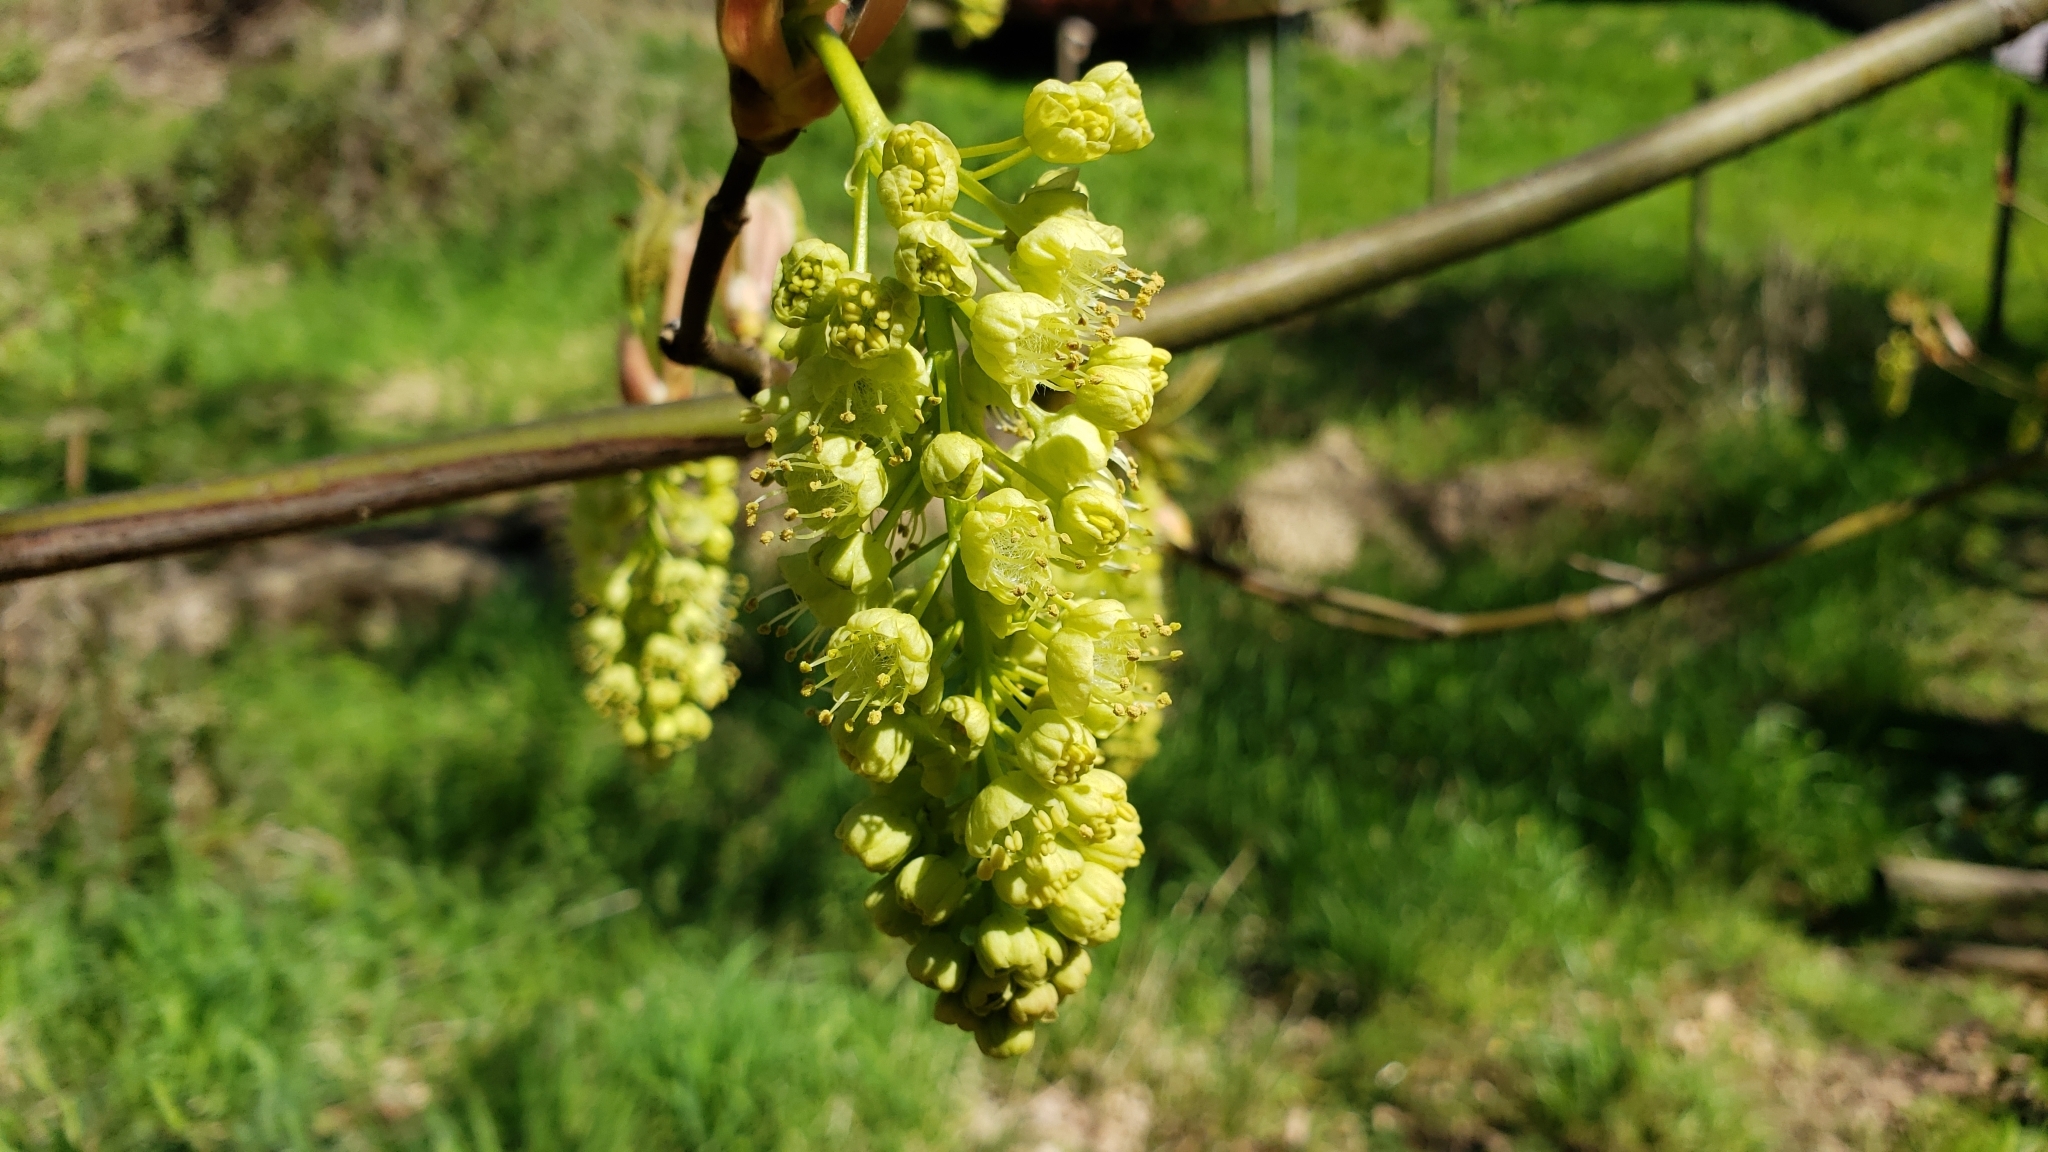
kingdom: Plantae
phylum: Tracheophyta
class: Magnoliopsida
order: Sapindales
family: Sapindaceae
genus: Acer
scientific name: Acer macrophyllum
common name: Oregon maple
